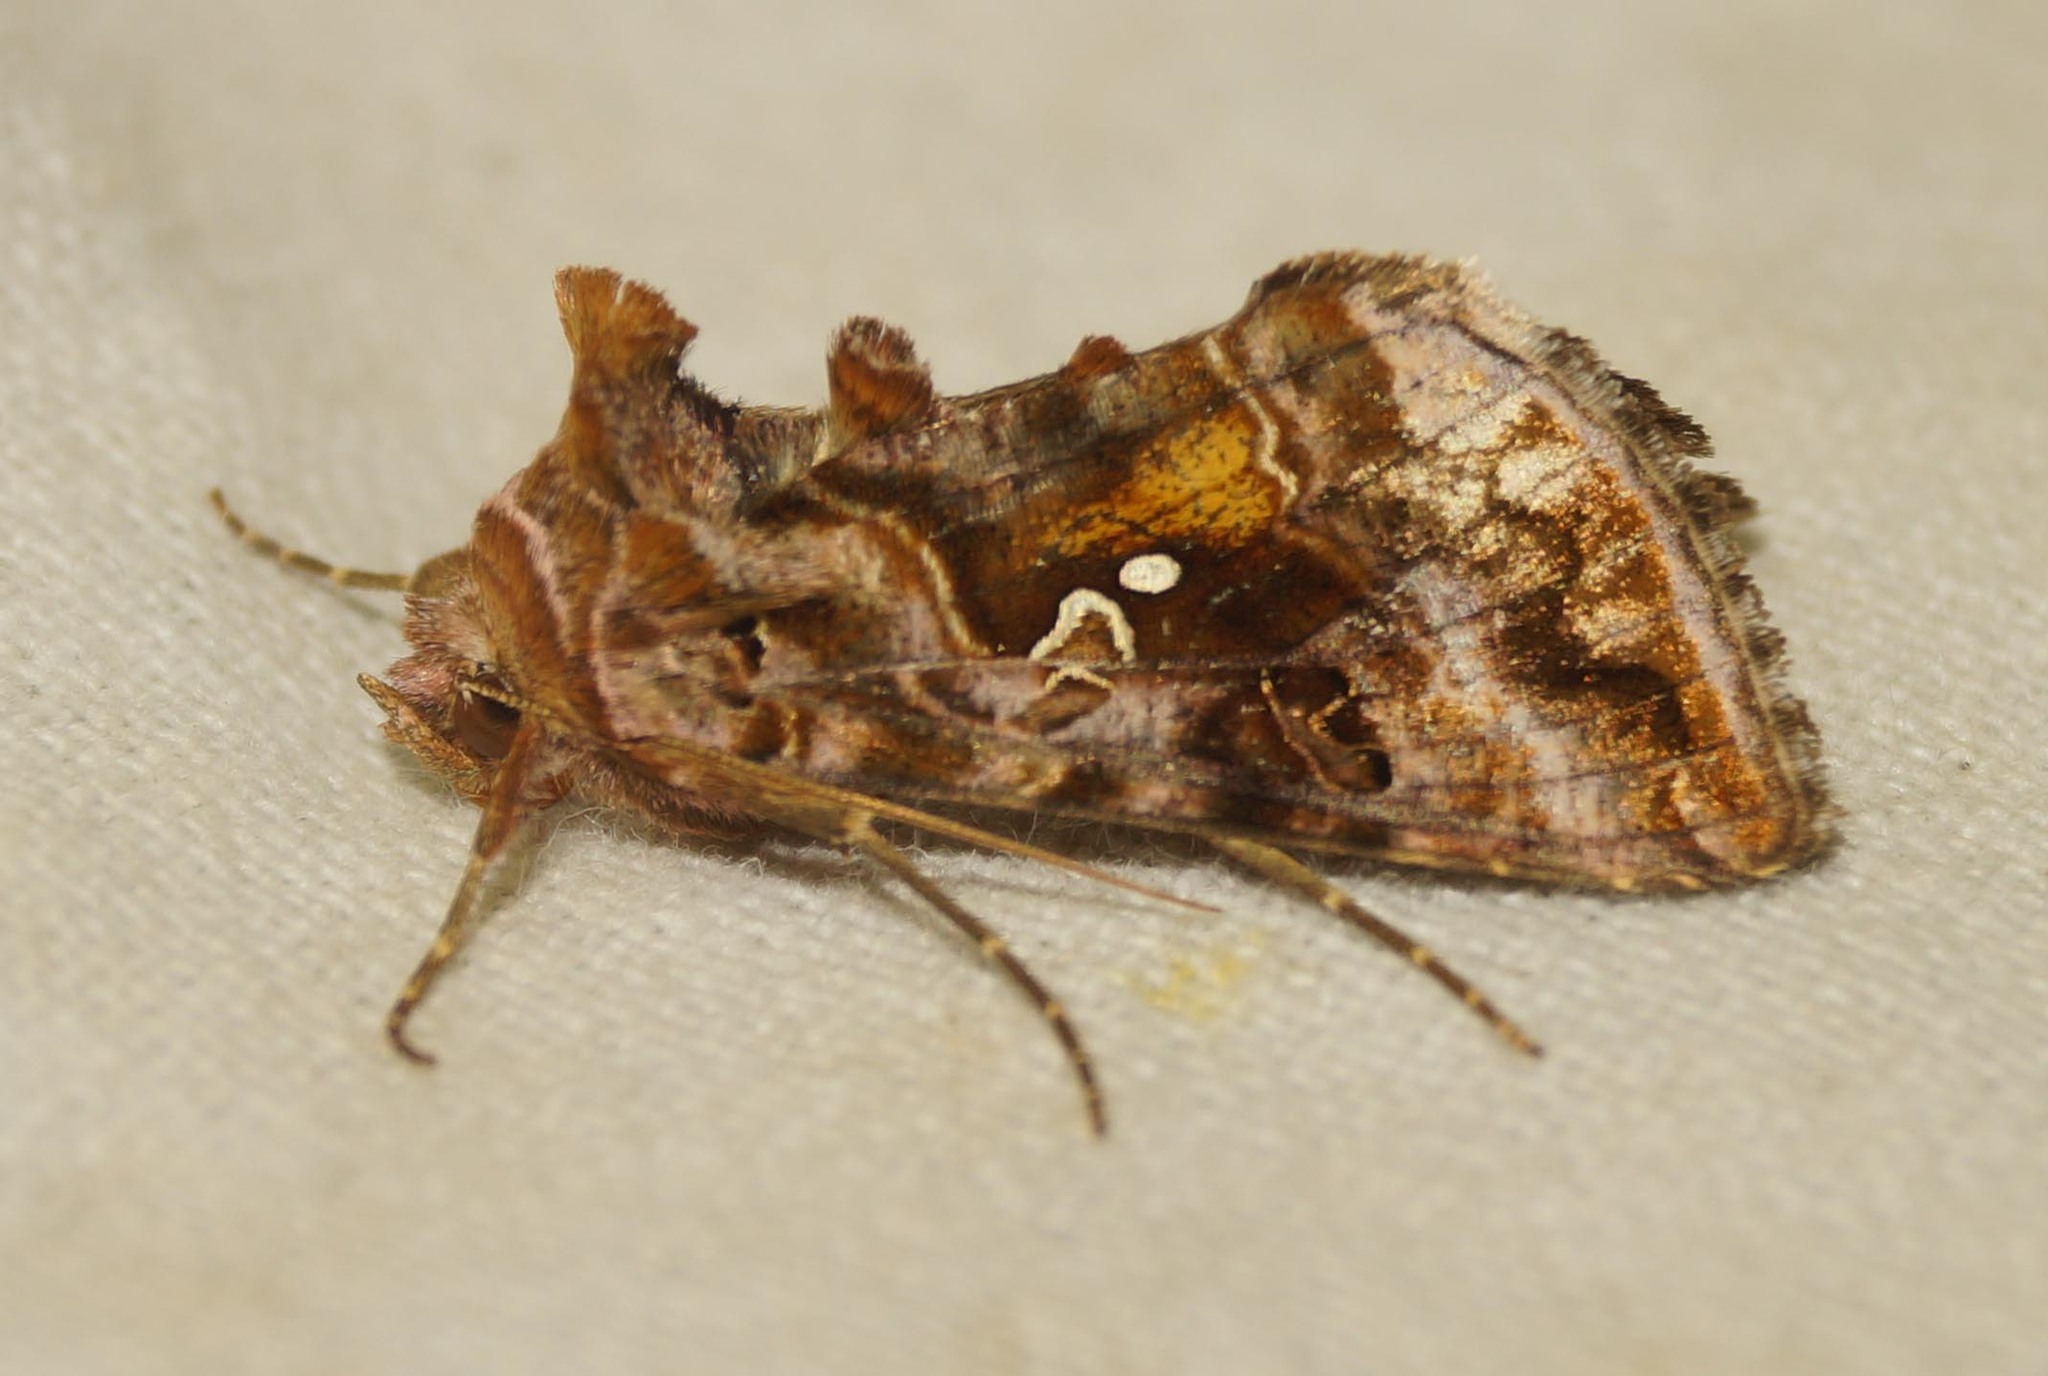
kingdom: Animalia
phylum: Arthropoda
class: Insecta
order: Lepidoptera
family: Noctuidae
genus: Autographa
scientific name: Autographa pulchrina
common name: Beautiful golden y
